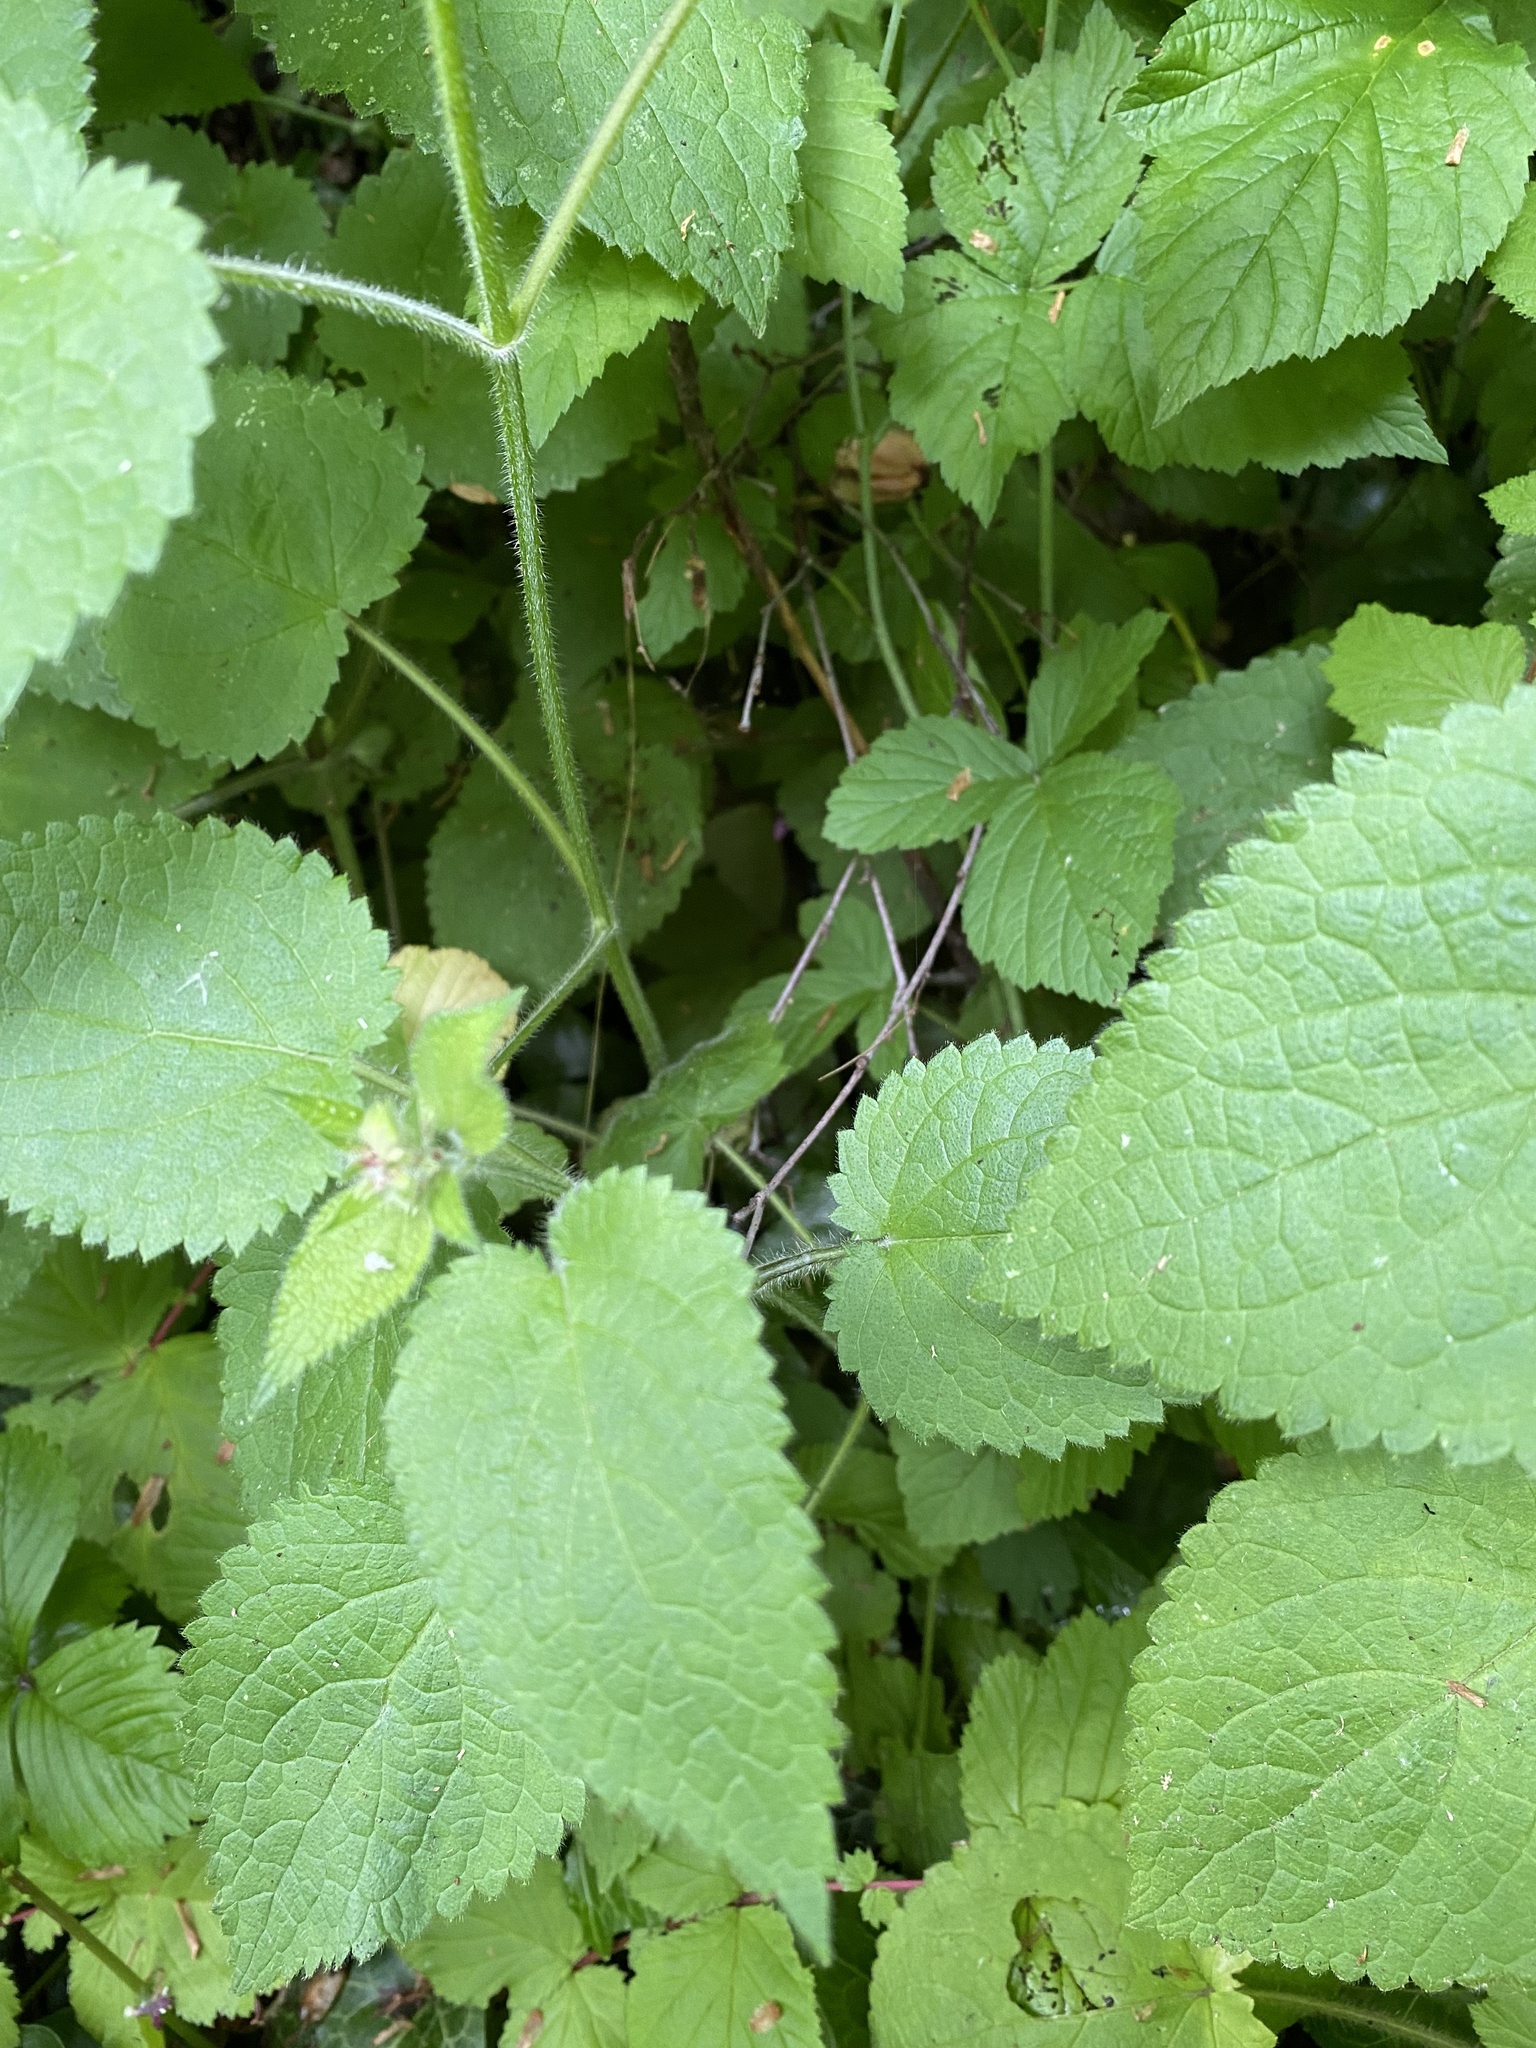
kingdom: Plantae
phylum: Tracheophyta
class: Magnoliopsida
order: Lamiales
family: Lamiaceae
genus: Stachys
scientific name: Stachys sylvatica
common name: Hedge woundwort
